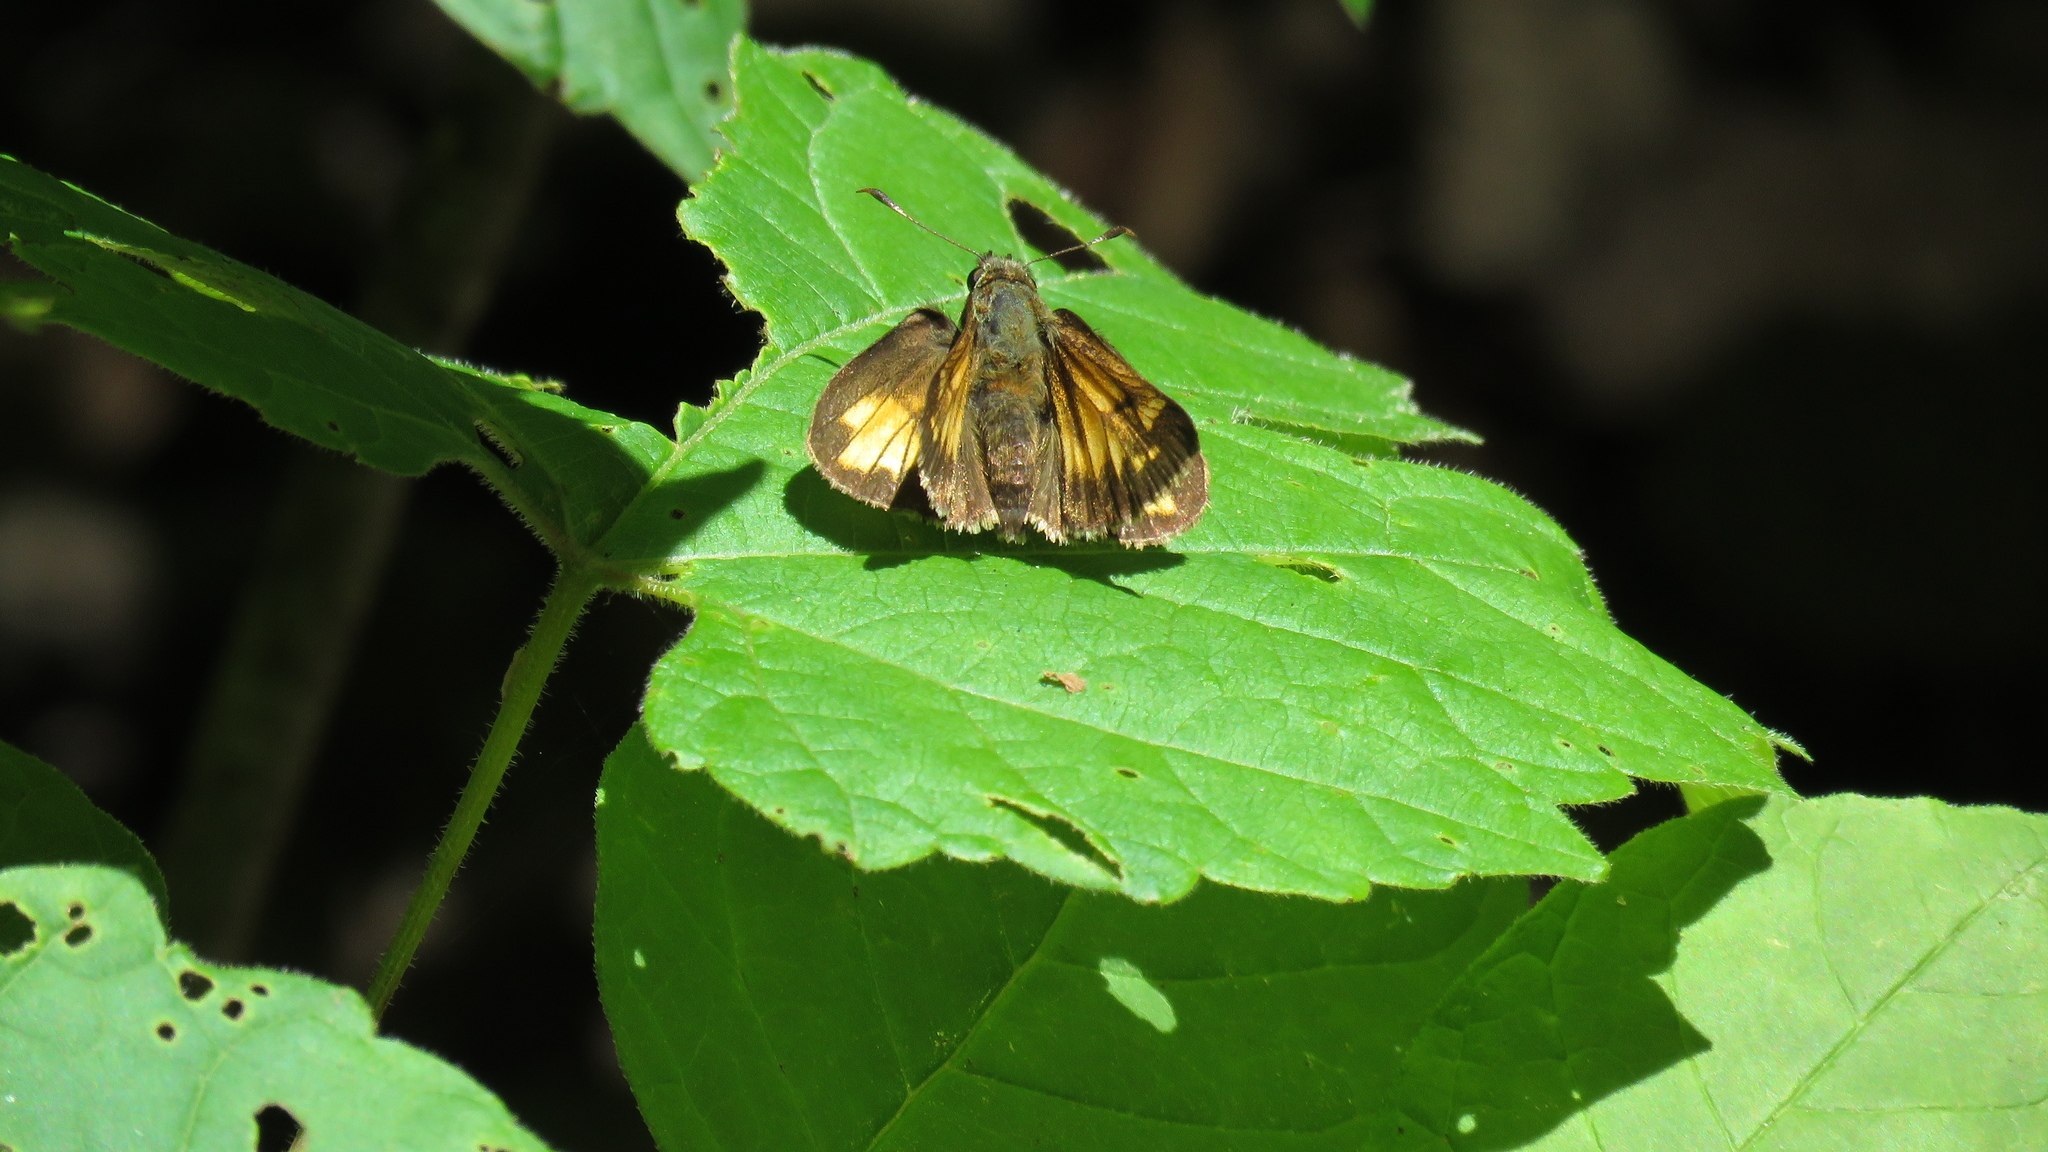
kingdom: Animalia
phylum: Arthropoda
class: Insecta
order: Lepidoptera
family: Hesperiidae
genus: Lon
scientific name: Lon hobomok
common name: Hobomok skipper
